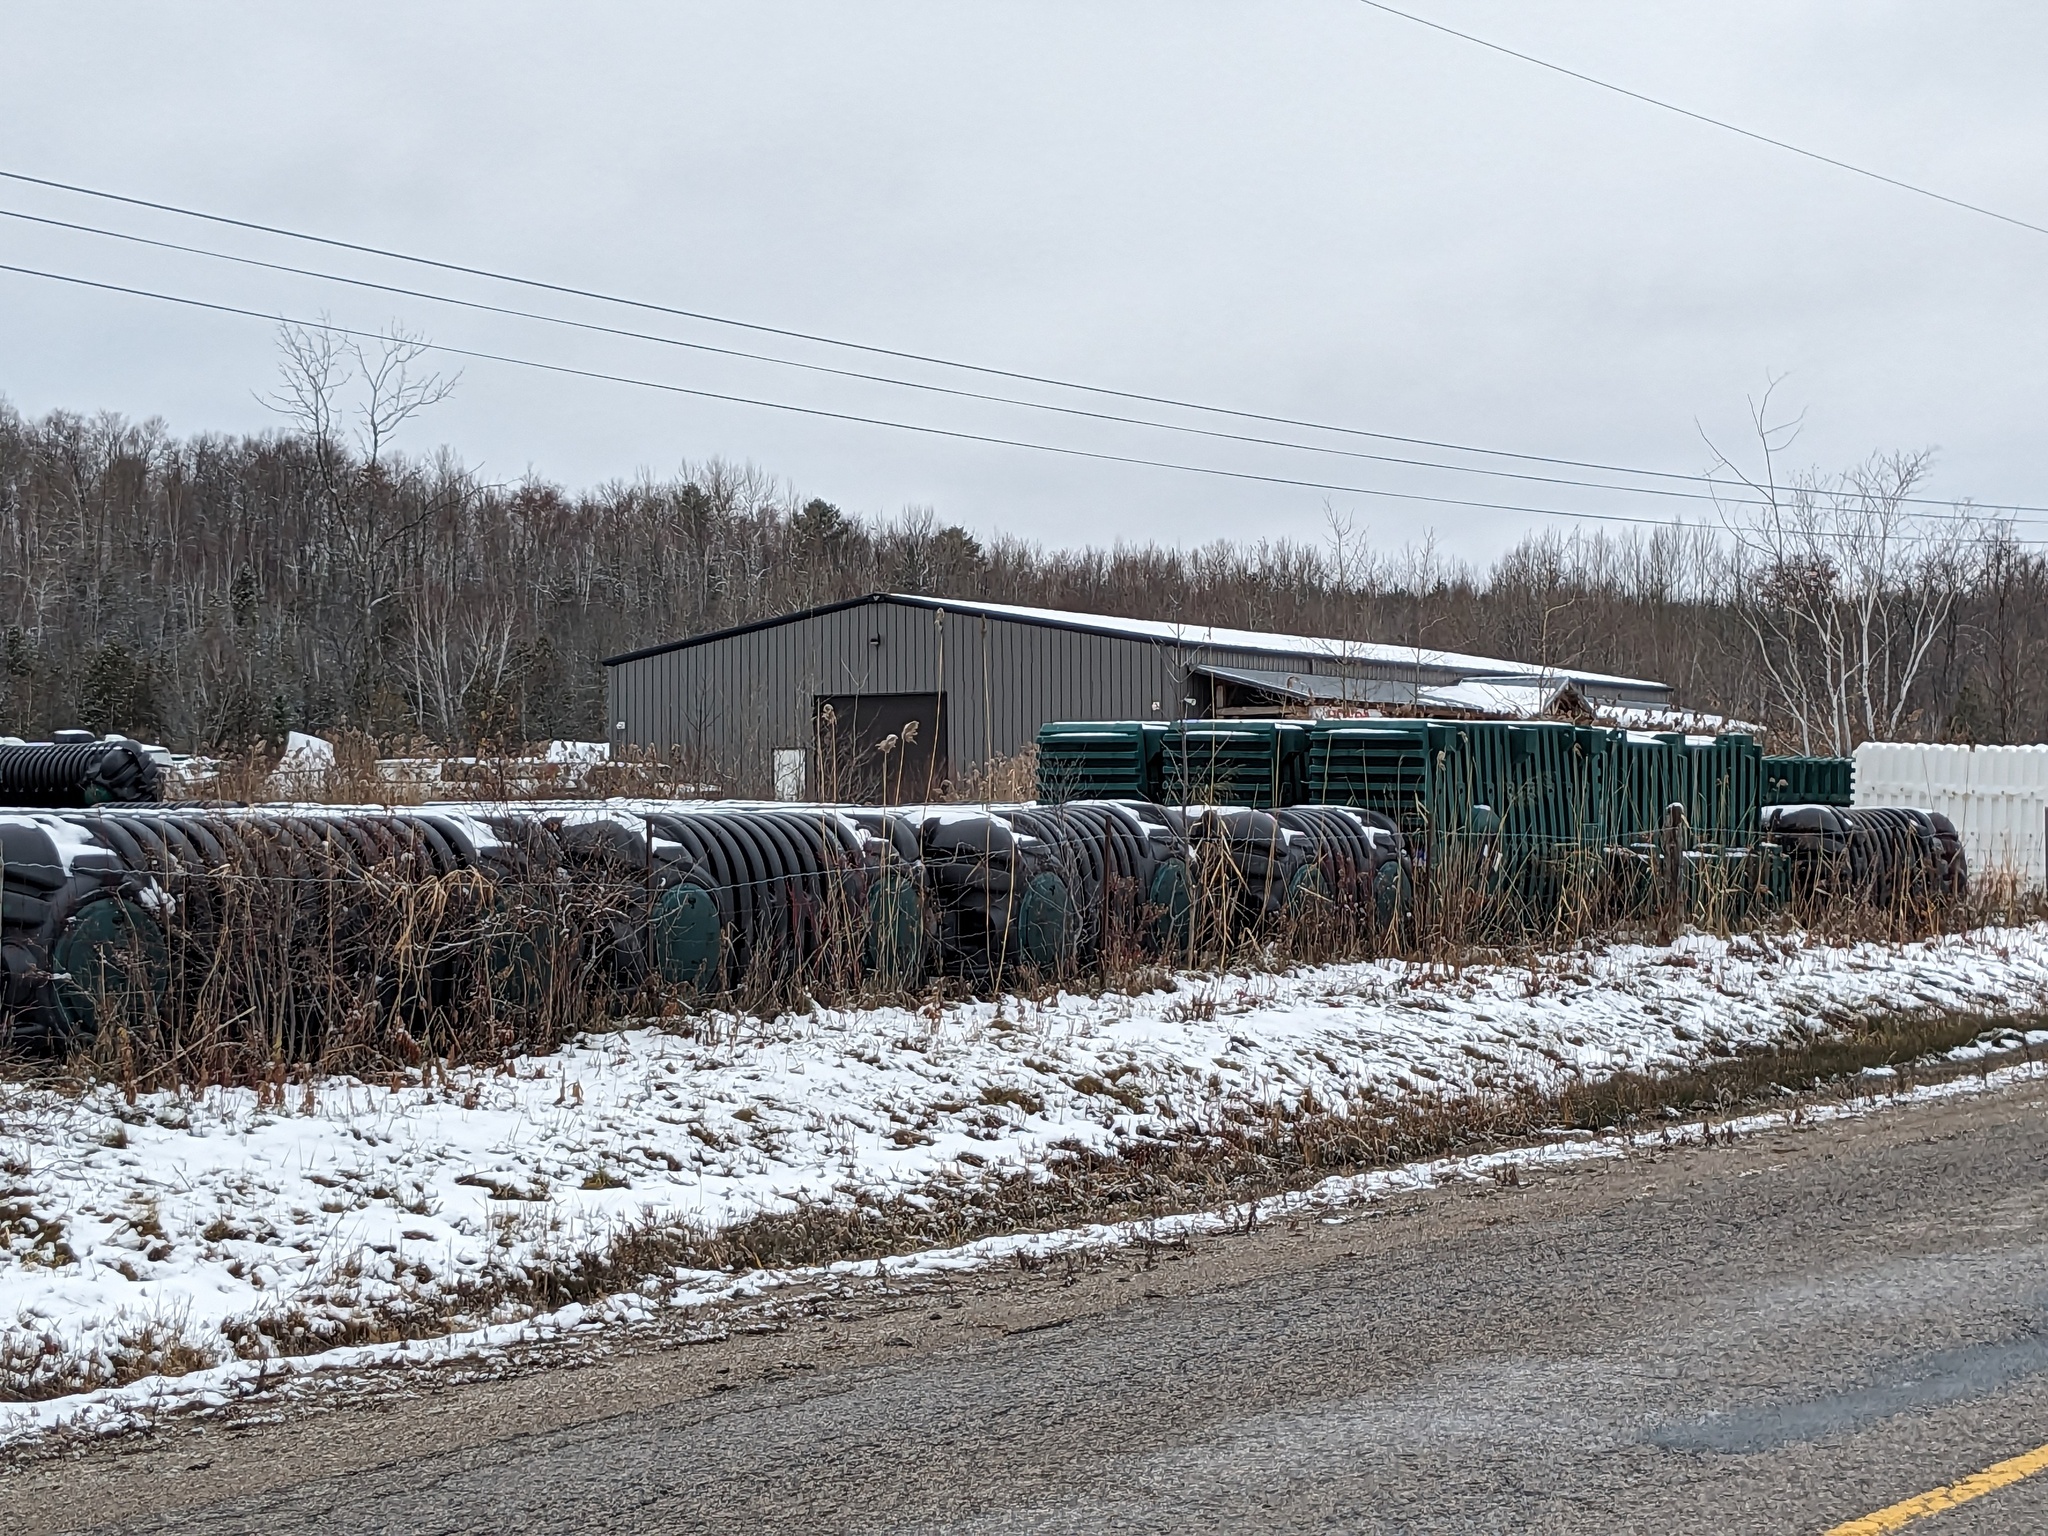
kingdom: Plantae
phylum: Tracheophyta
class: Liliopsida
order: Poales
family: Poaceae
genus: Phragmites
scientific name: Phragmites australis
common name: Common reed
